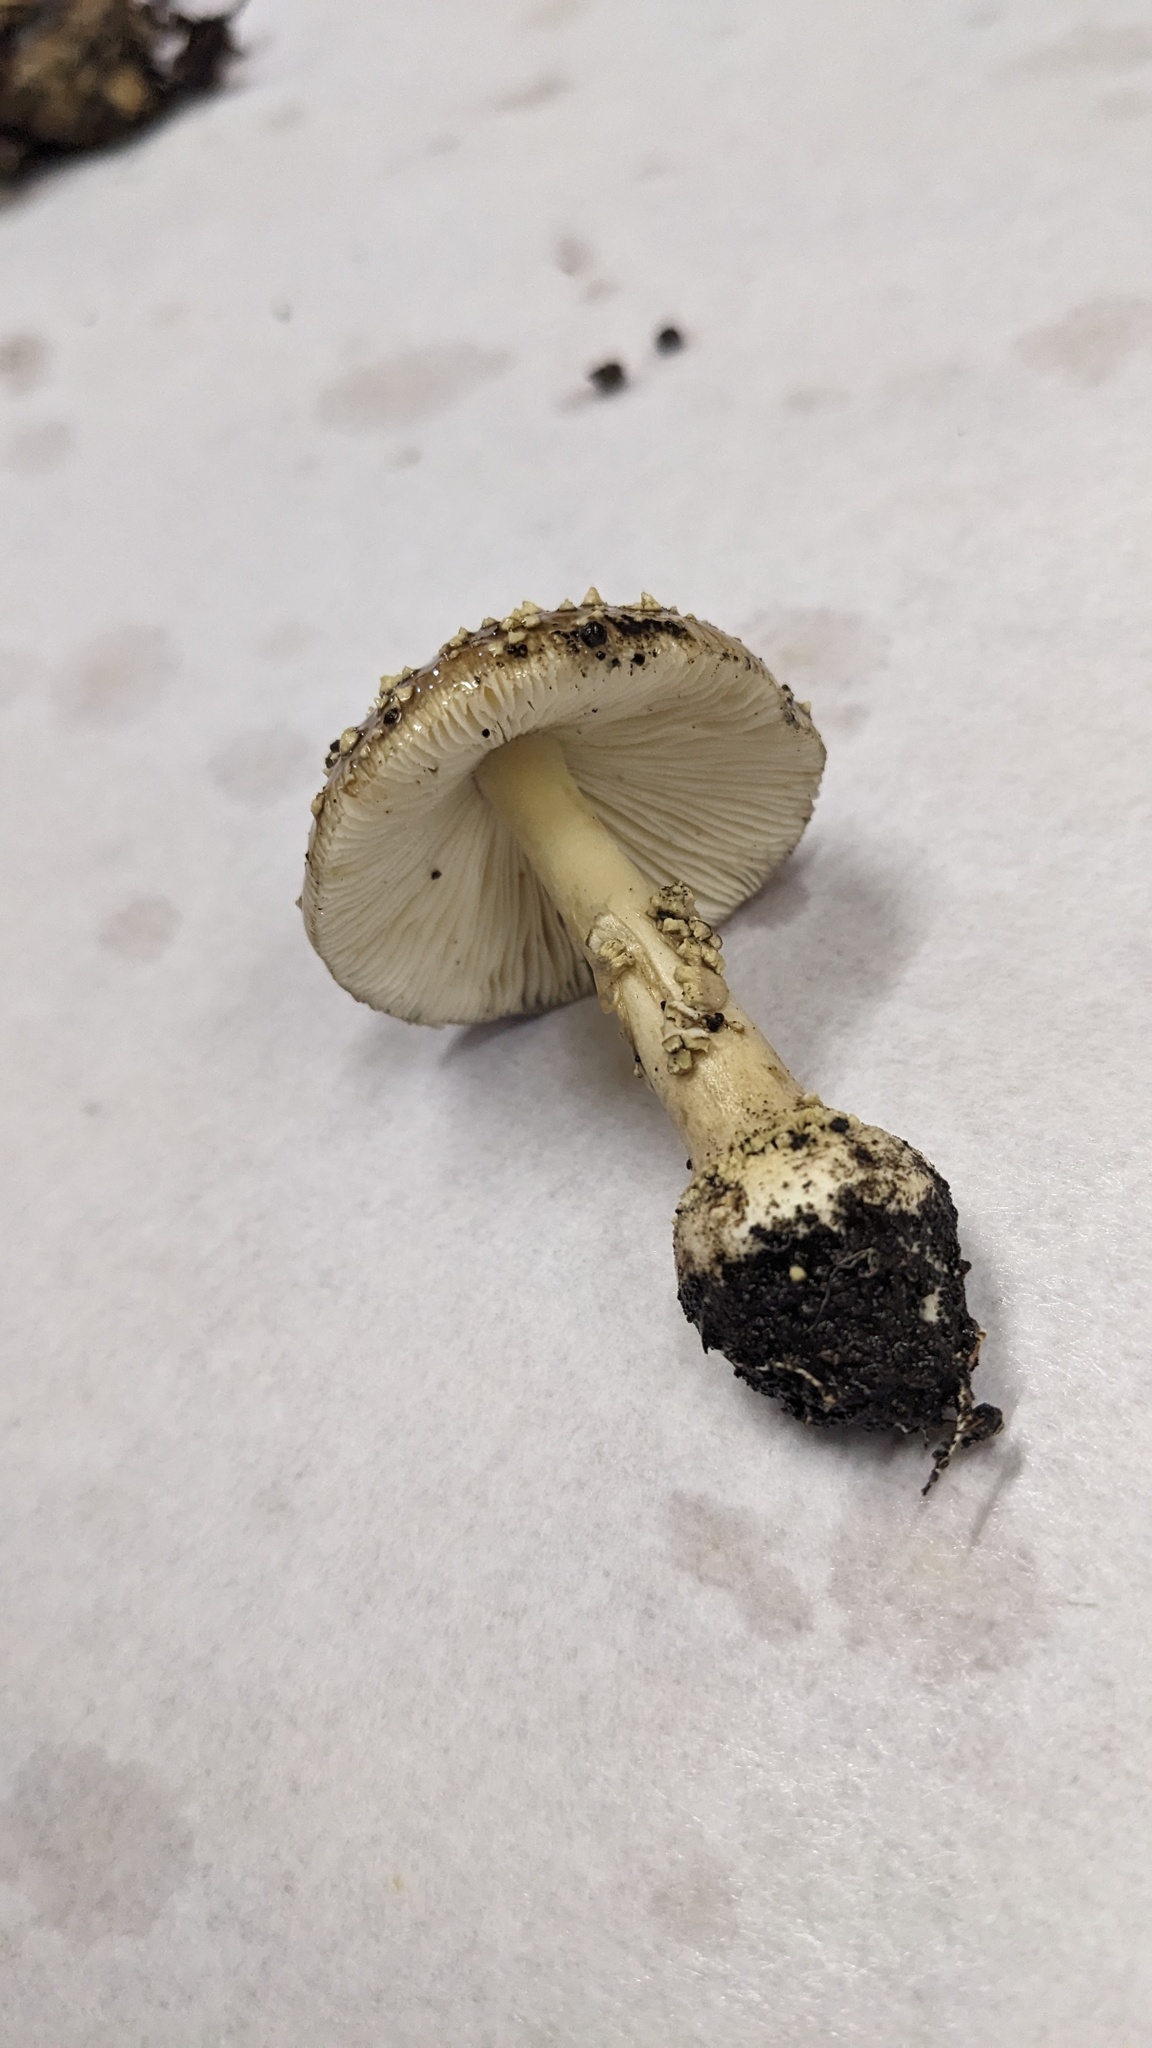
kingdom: Fungi
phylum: Basidiomycota
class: Agaricomycetes
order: Agaricales
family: Amanitaceae
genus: Amanita
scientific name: Amanita sychnopyramis
